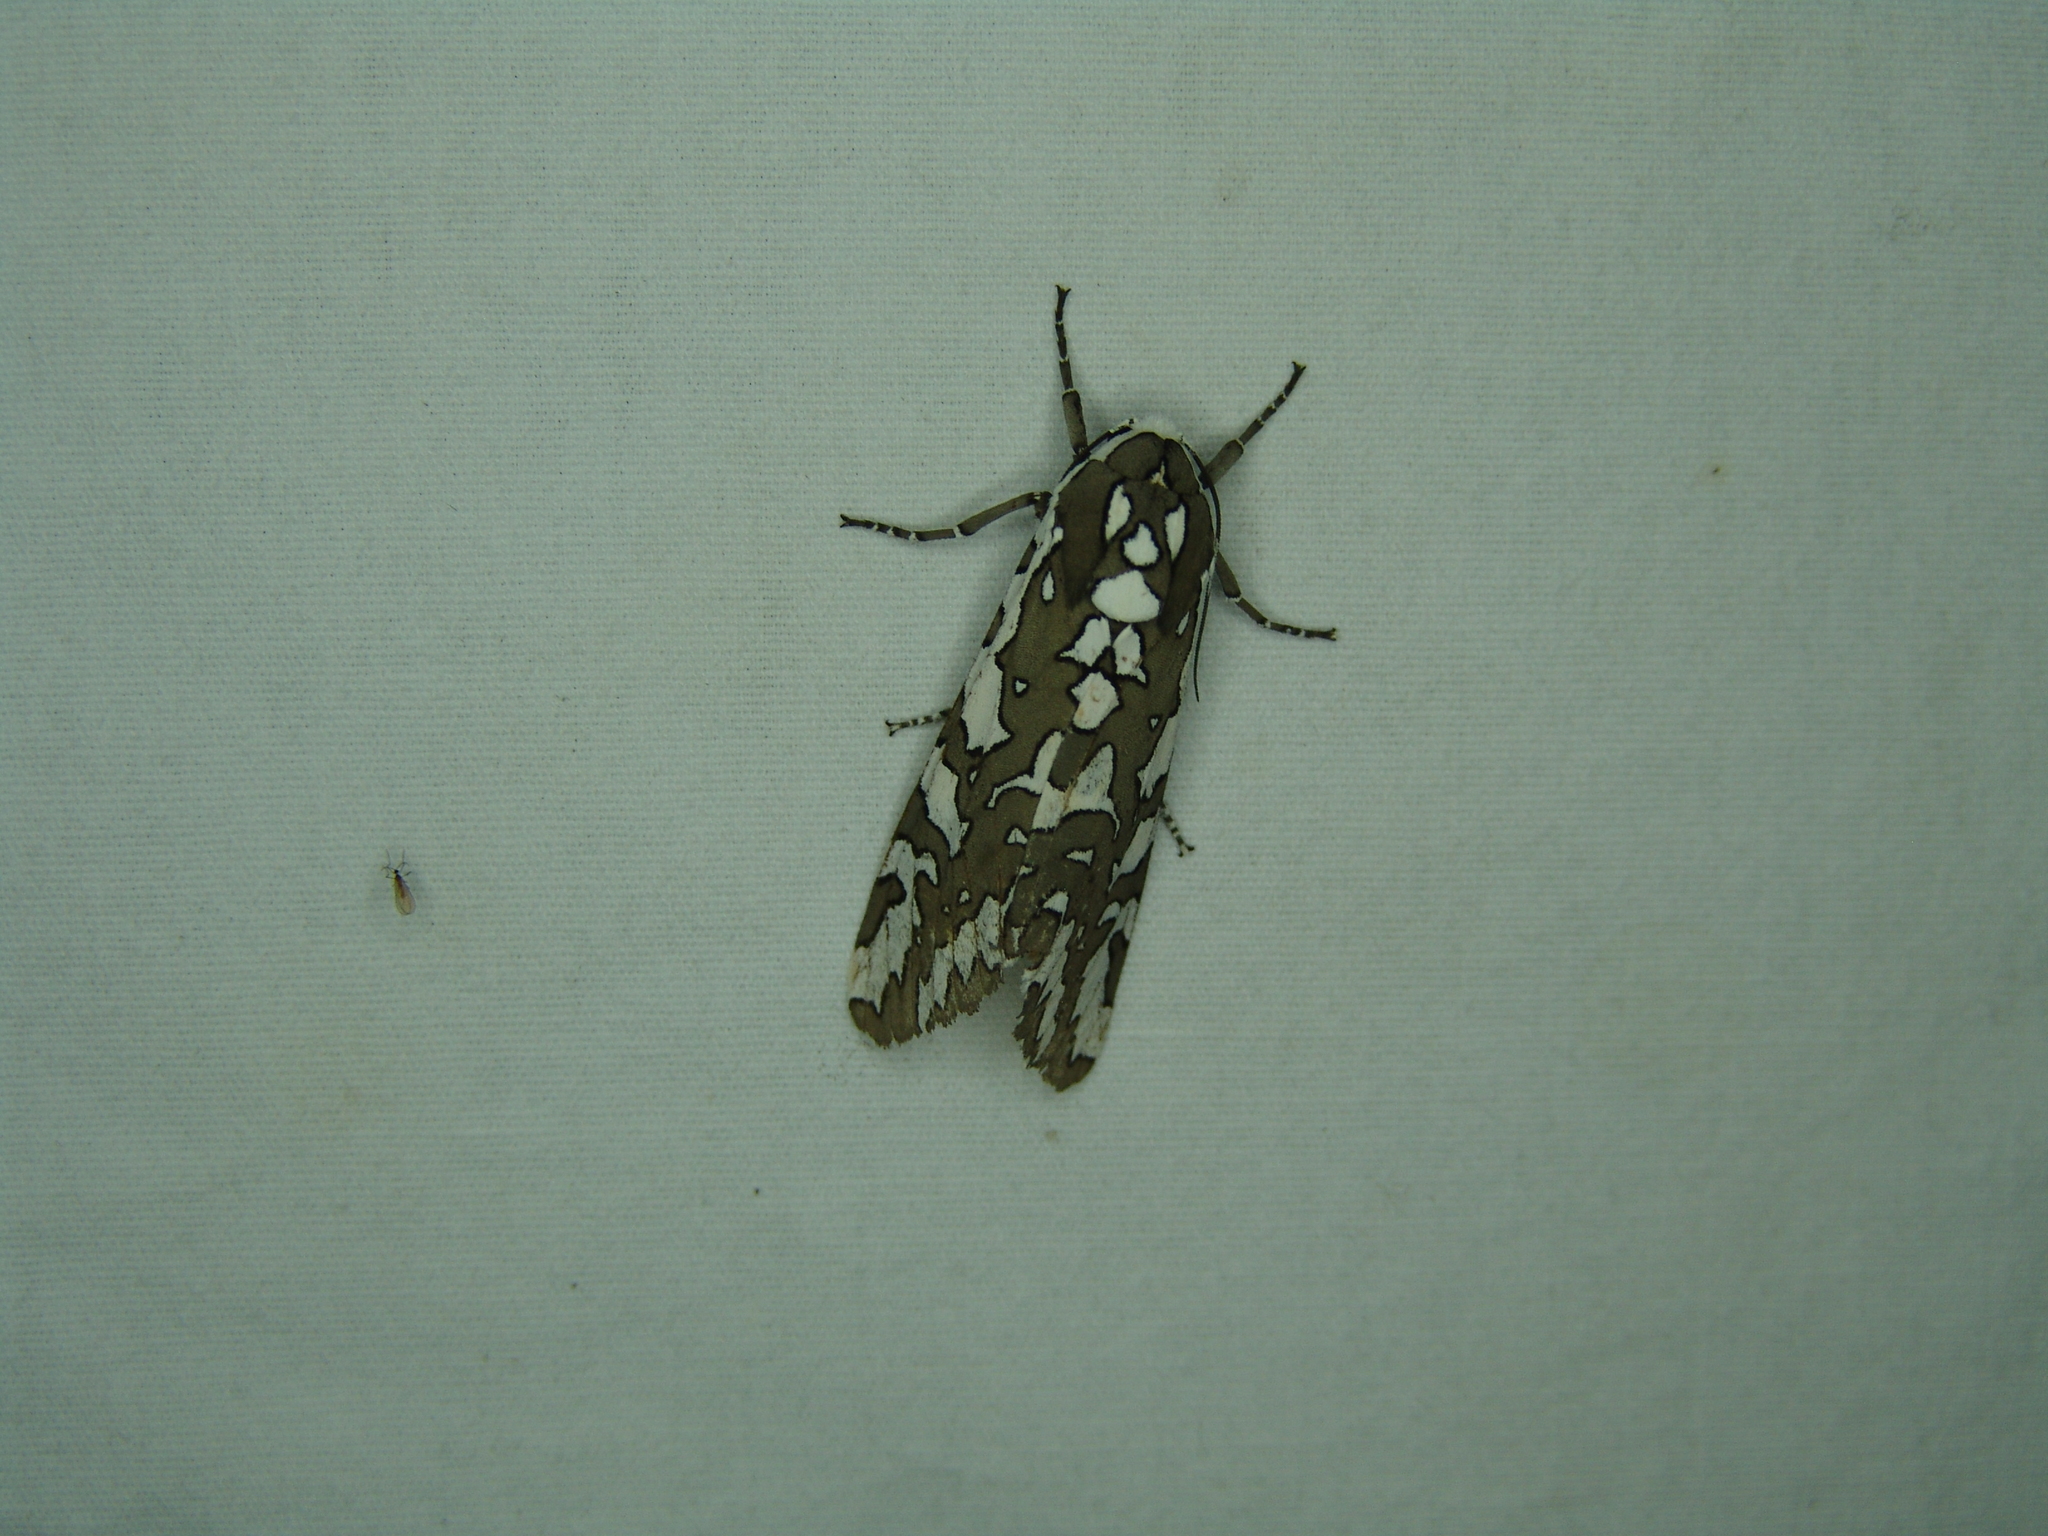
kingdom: Animalia
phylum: Arthropoda
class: Insecta
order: Lepidoptera
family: Erebidae
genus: Arachnis
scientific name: Arachnis zuni
